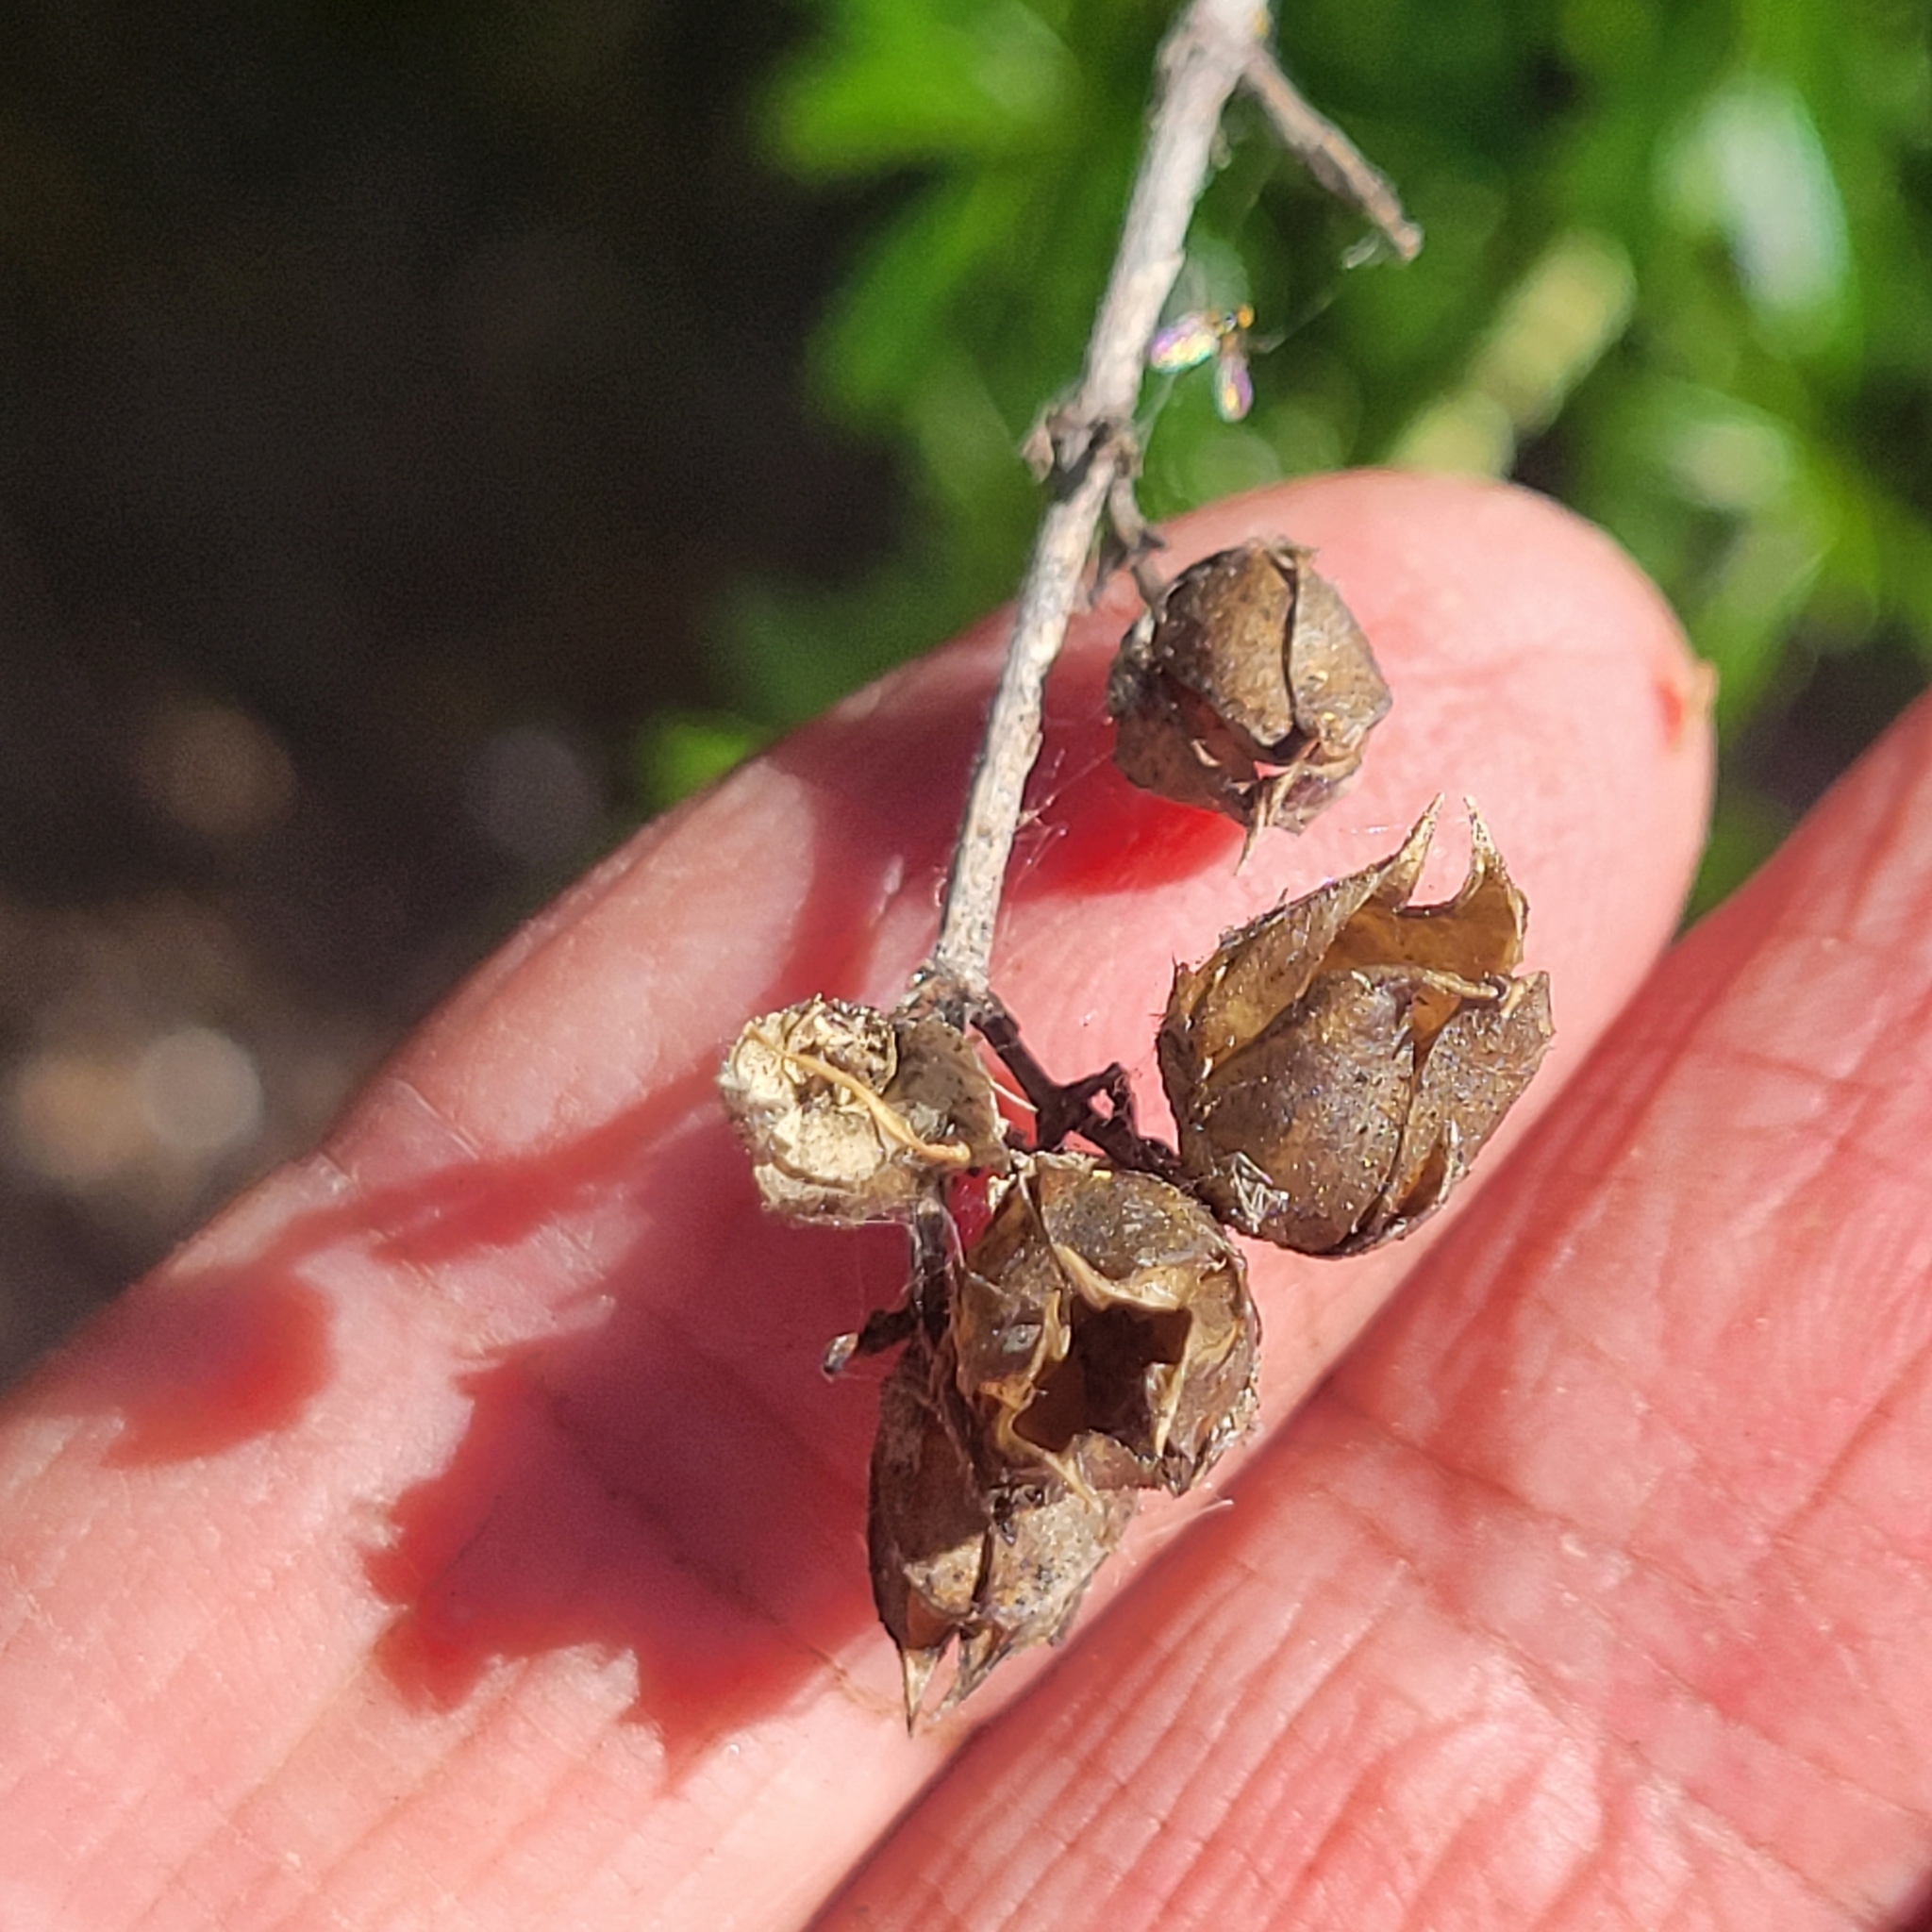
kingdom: Plantae
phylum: Tracheophyta
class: Magnoliopsida
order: Lamiales
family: Plantaginaceae
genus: Keckiella
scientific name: Keckiella ternata
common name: Scarlet keckiella
